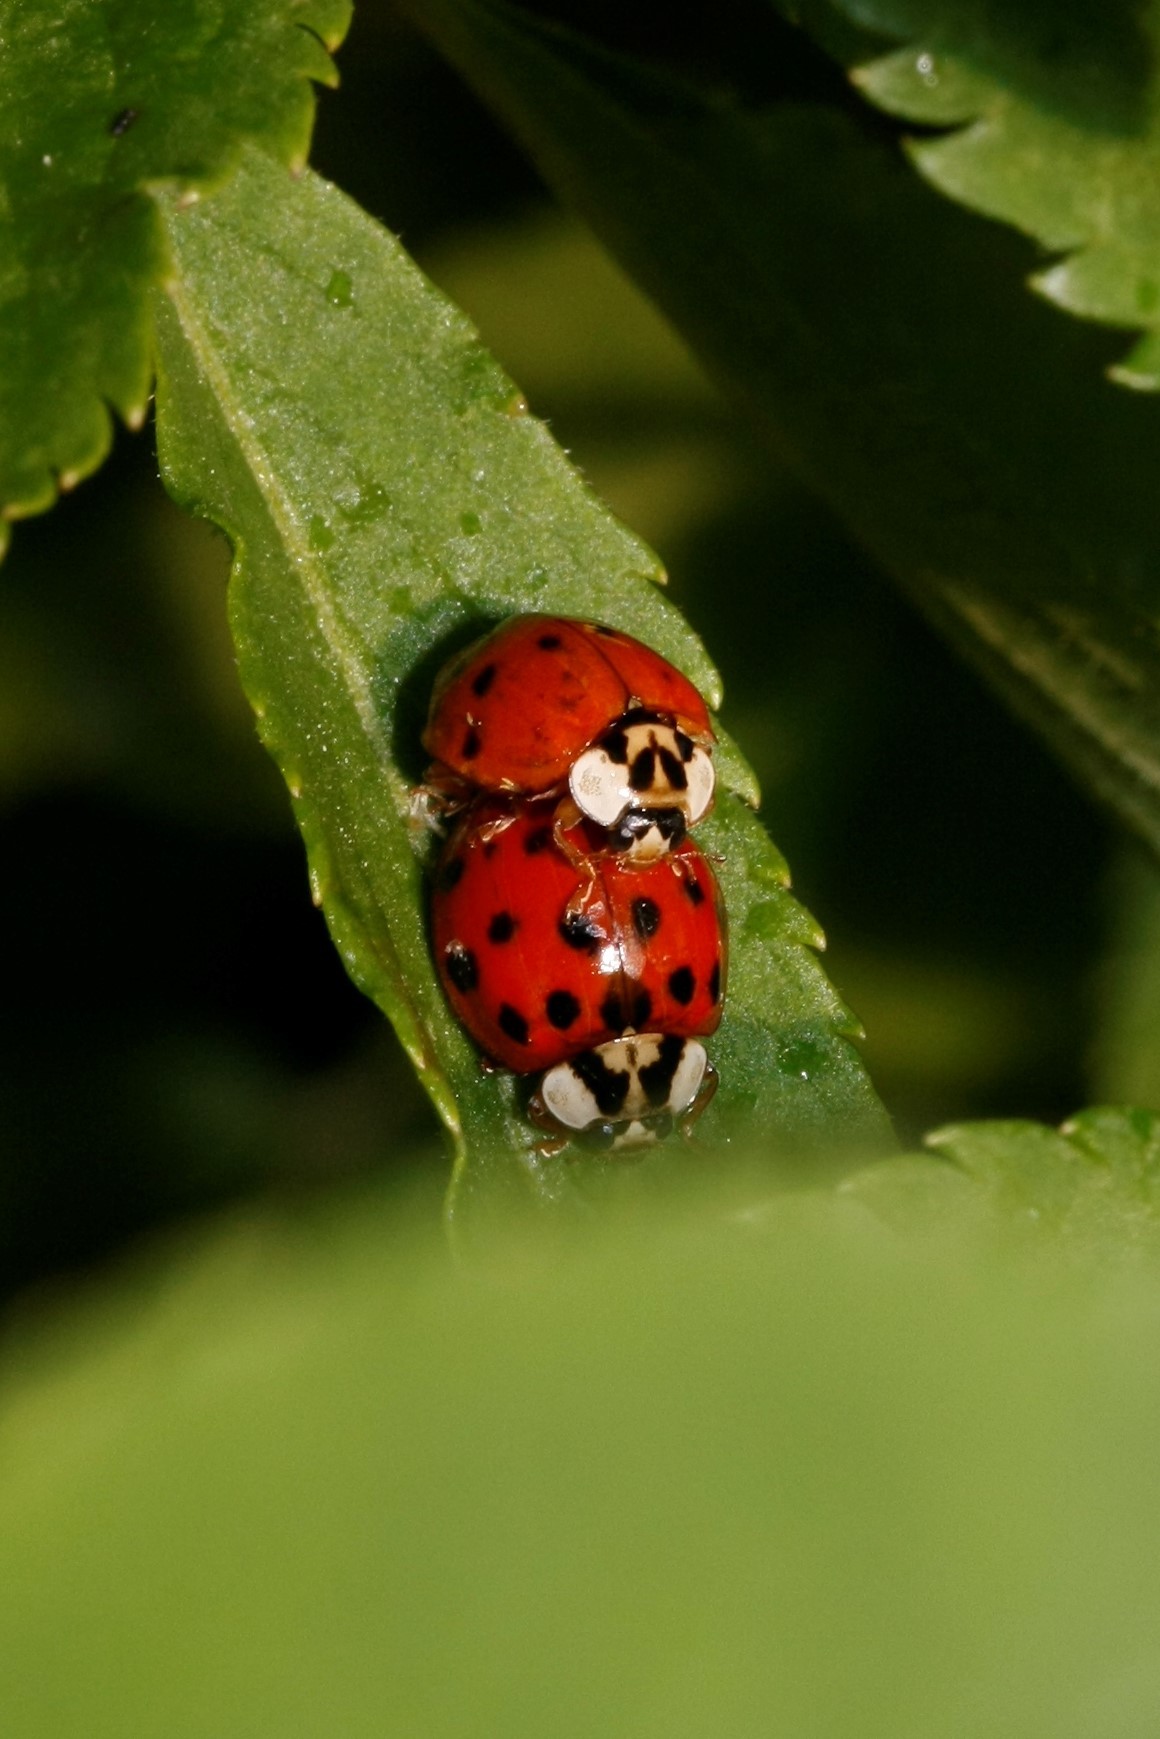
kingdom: Animalia
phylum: Arthropoda
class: Insecta
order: Coleoptera
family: Coccinellidae
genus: Harmonia
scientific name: Harmonia axyridis
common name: Harlequin ladybird
